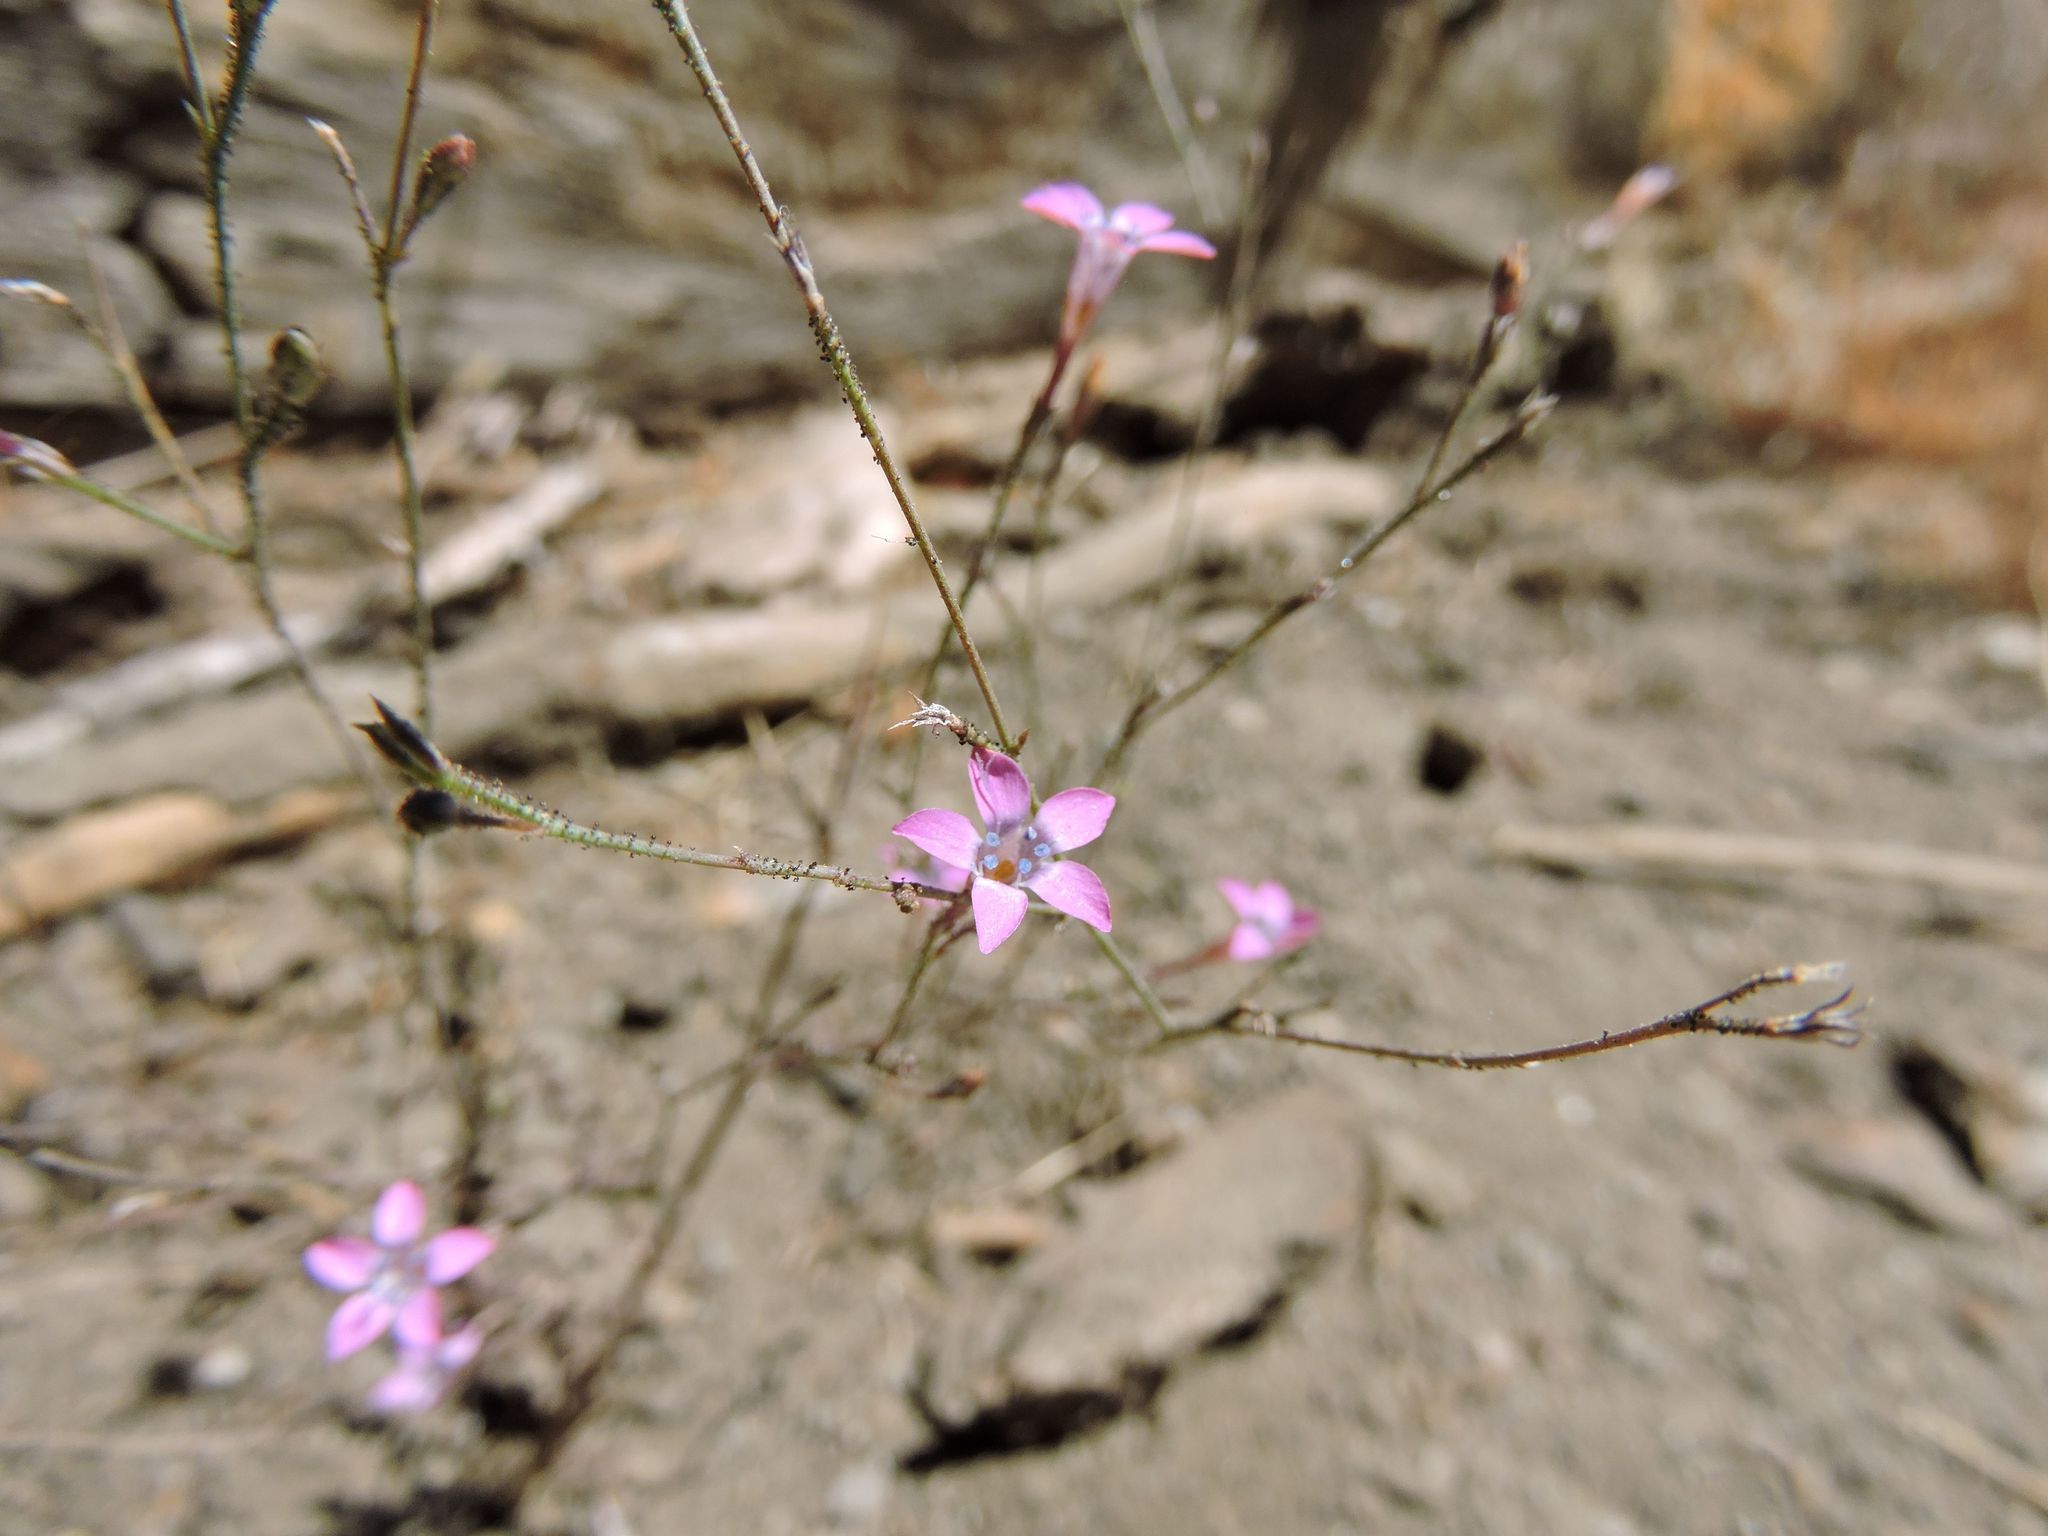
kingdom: Plantae
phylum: Tracheophyta
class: Magnoliopsida
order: Ericales
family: Polemoniaceae
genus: Gilia
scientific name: Gilia ochroleuca
